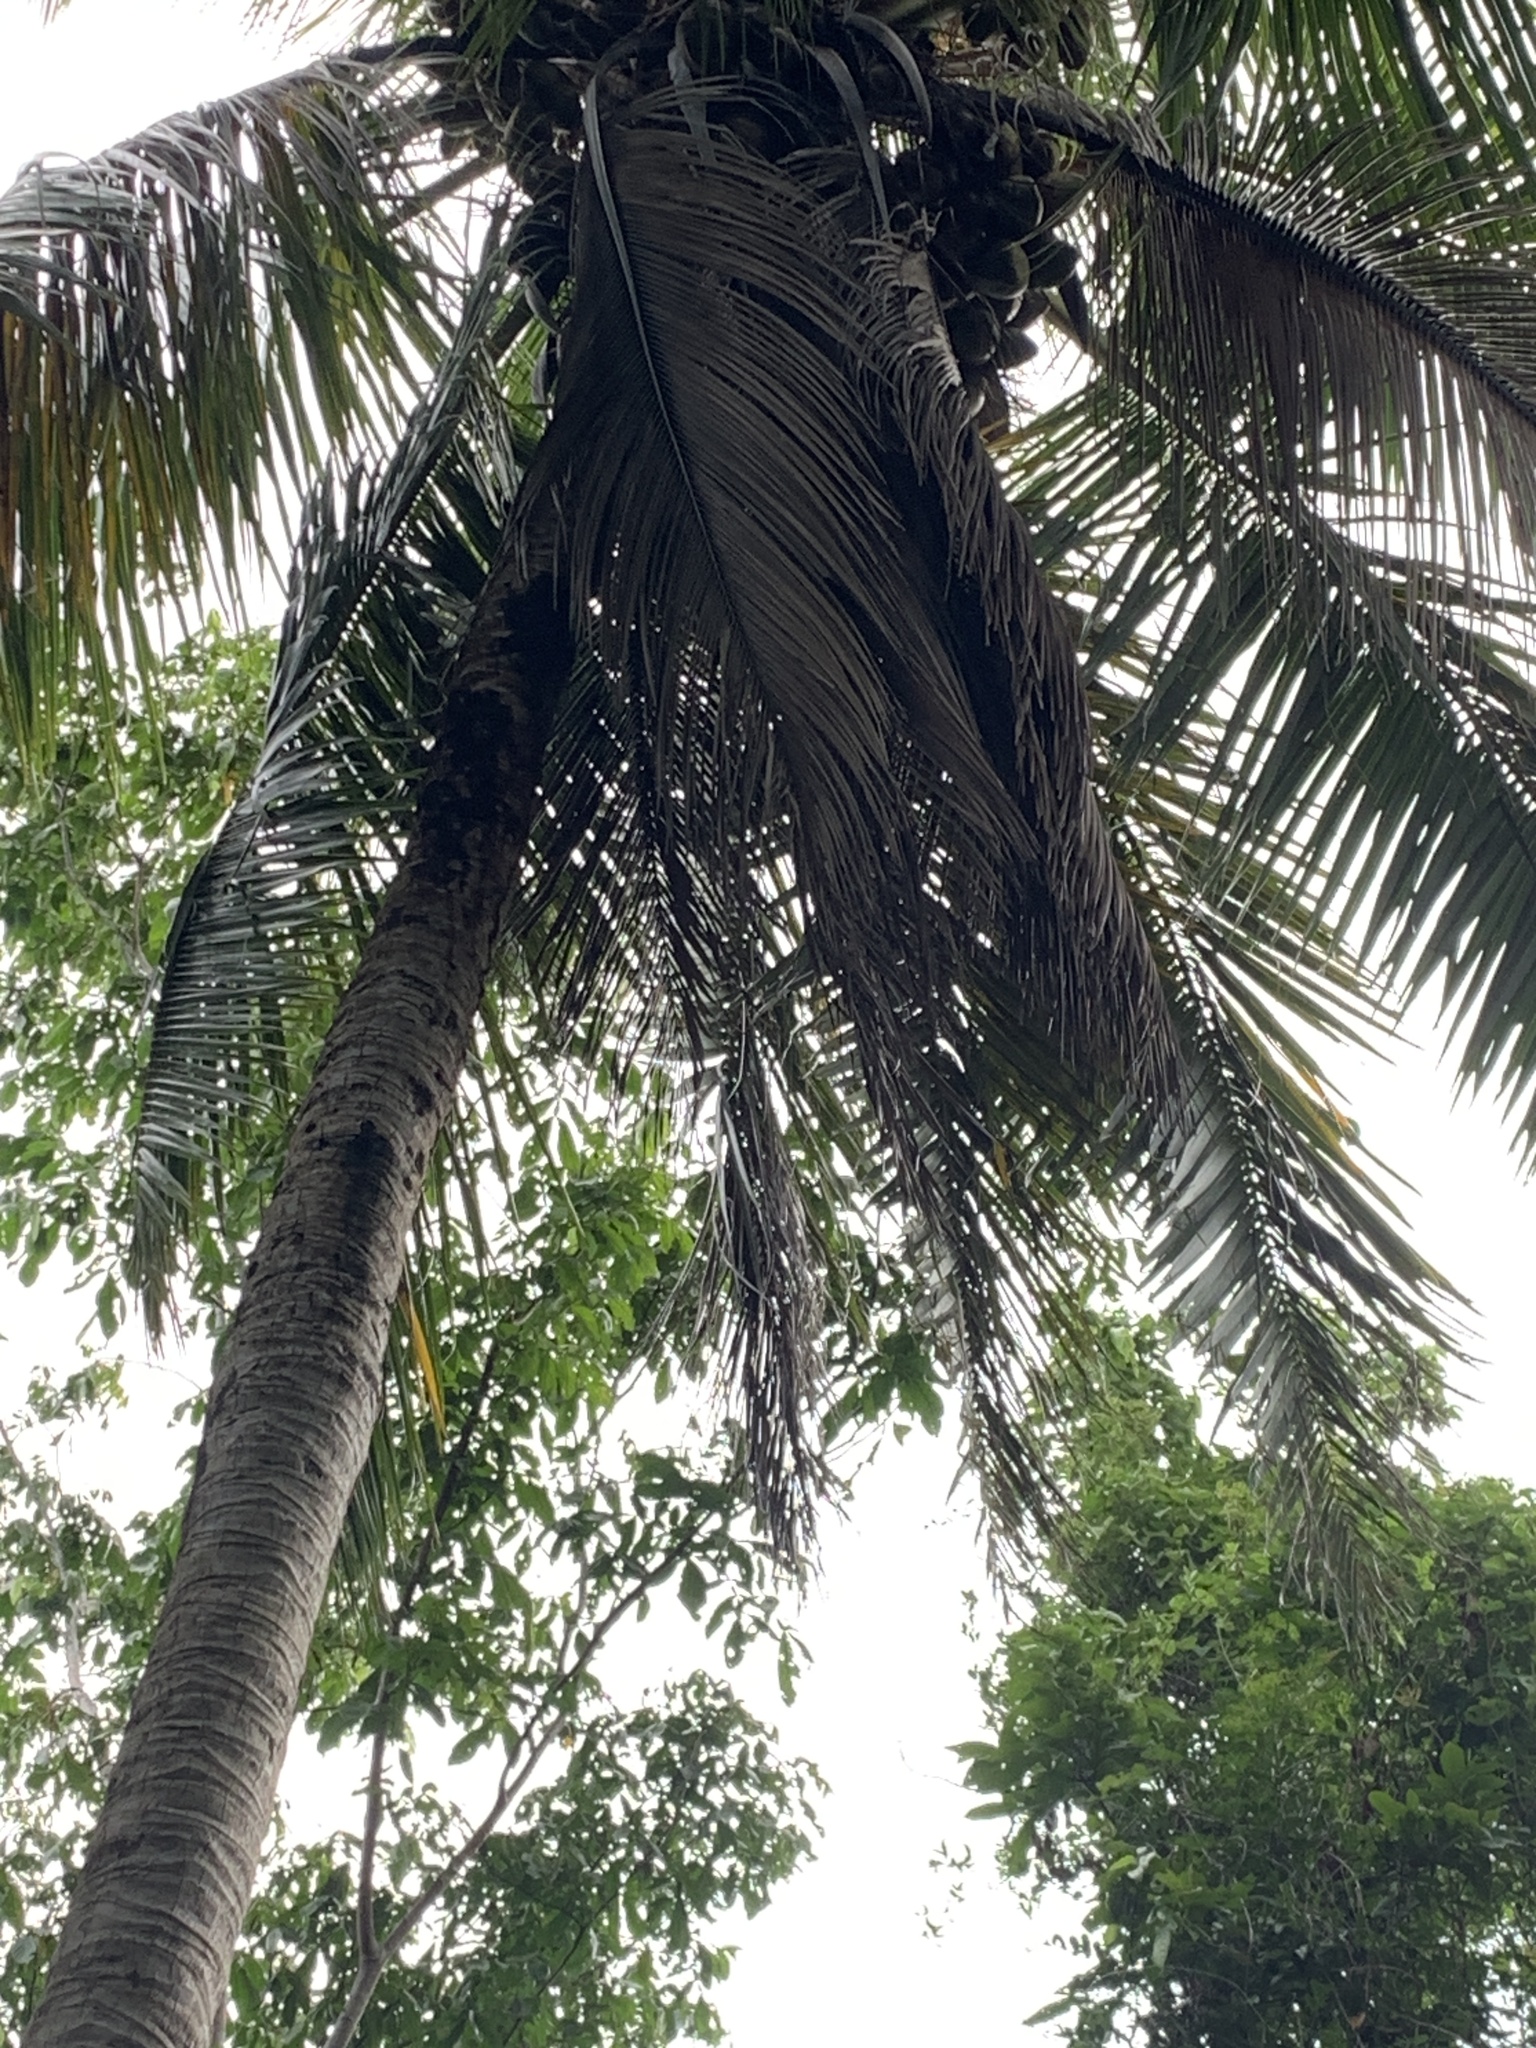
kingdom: Plantae
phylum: Tracheophyta
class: Liliopsida
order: Arecales
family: Arecaceae
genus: Cocos
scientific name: Cocos nucifera
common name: Coconut palm
